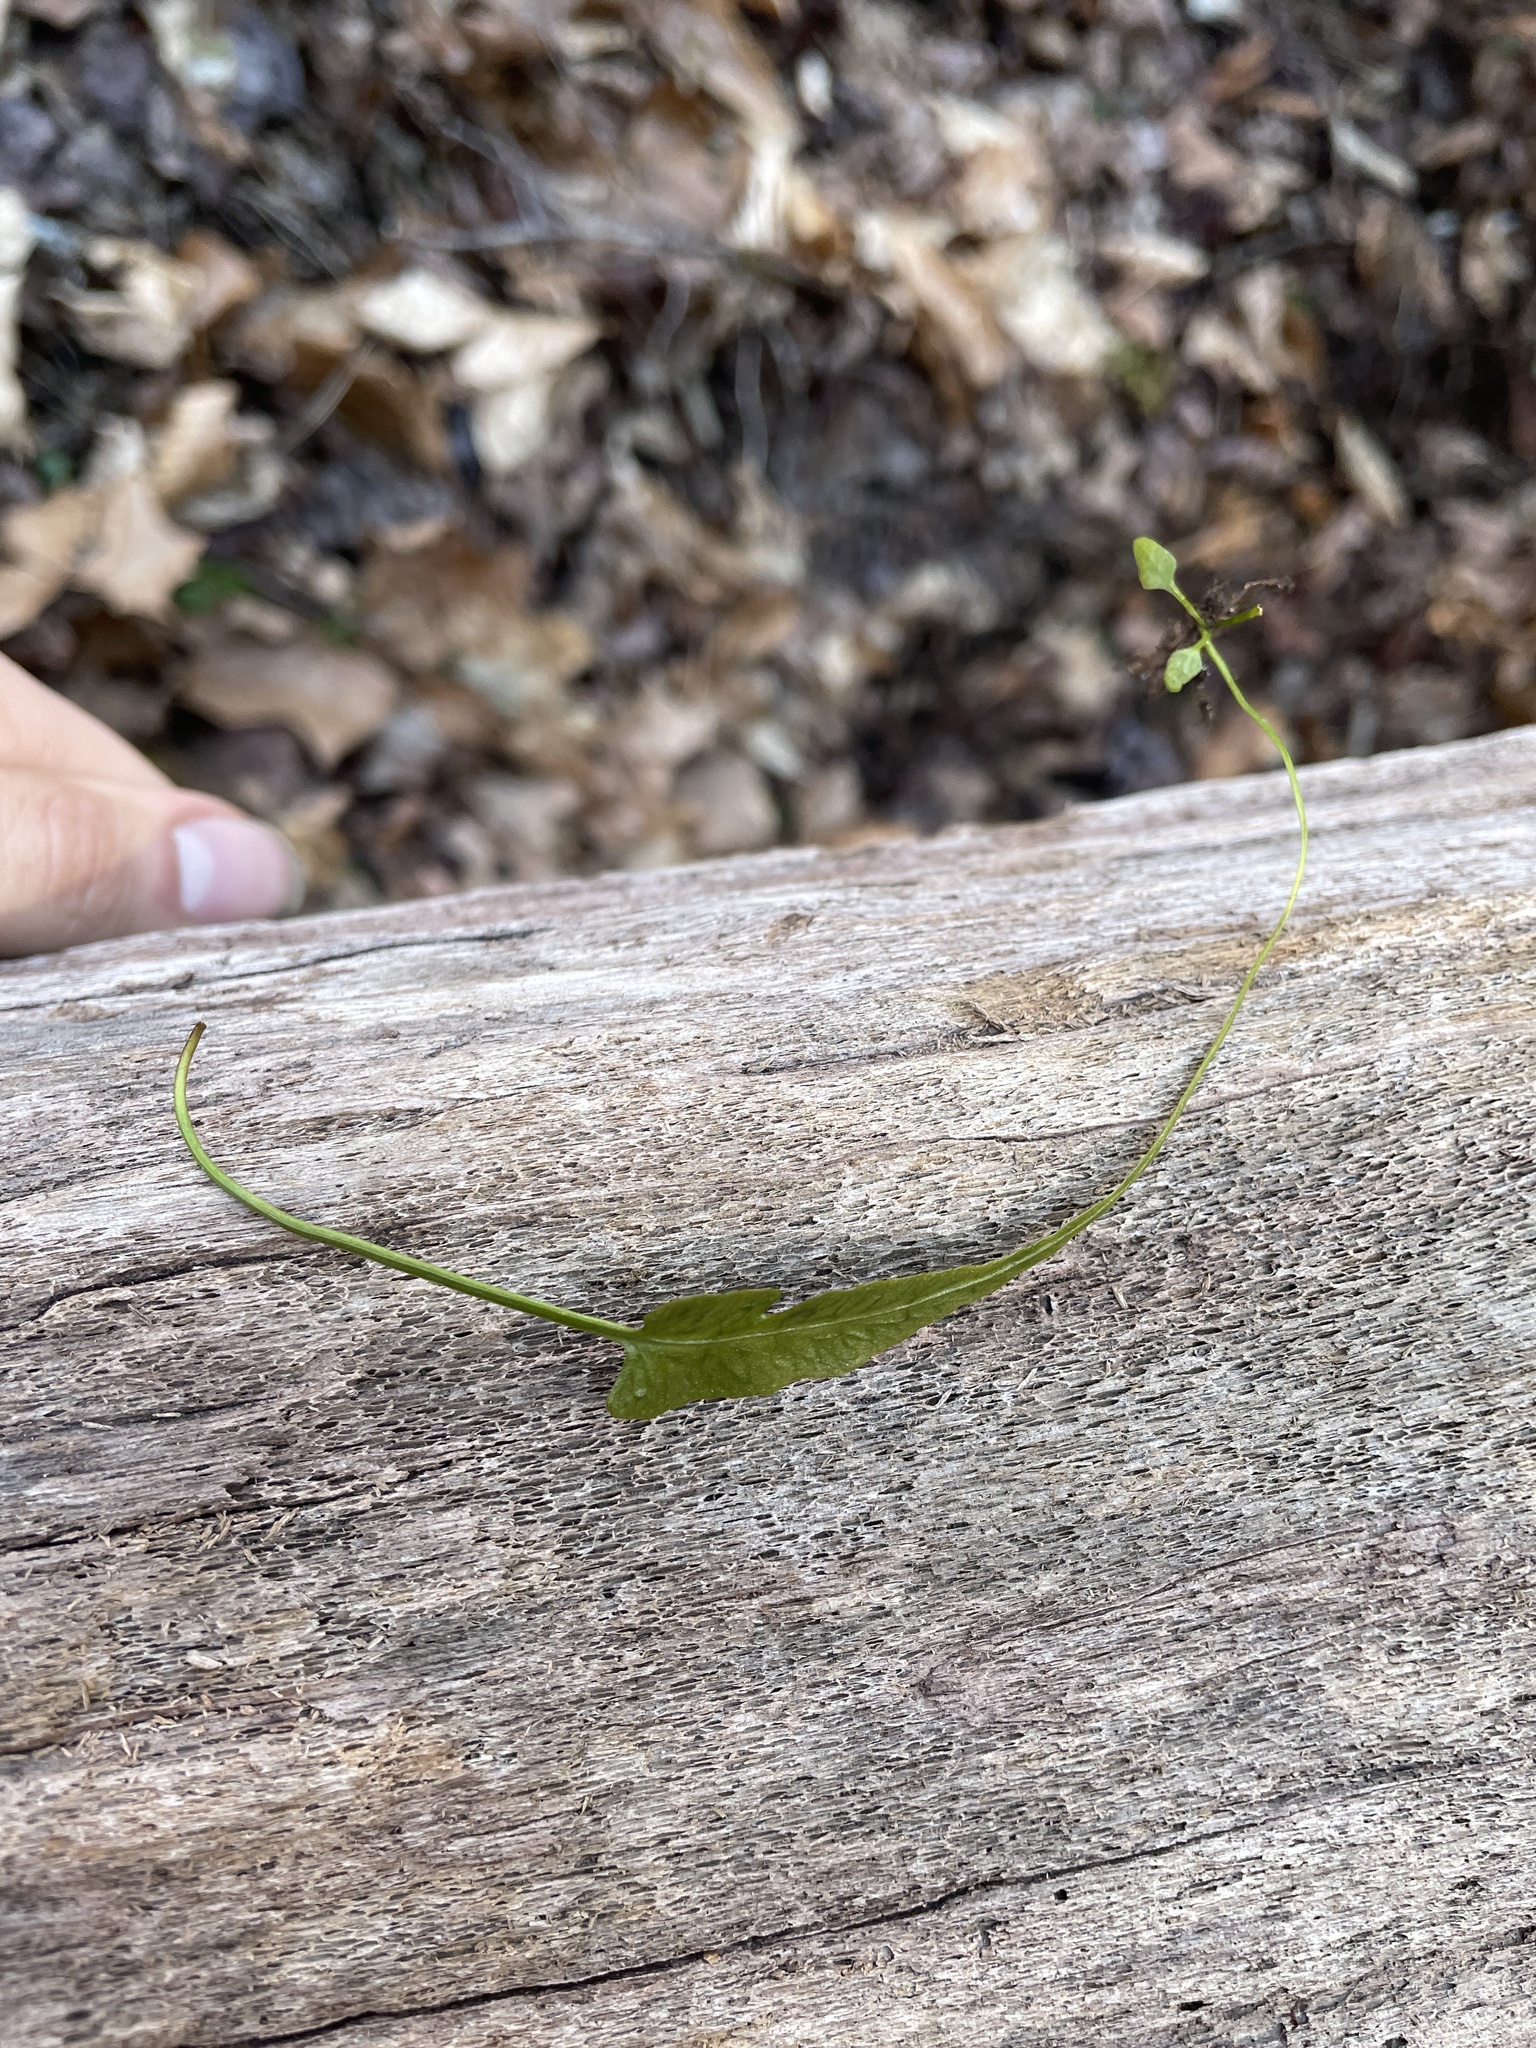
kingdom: Plantae
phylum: Tracheophyta
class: Polypodiopsida
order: Polypodiales
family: Aspleniaceae
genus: Asplenium
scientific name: Asplenium rhizophyllum
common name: Walking fern
